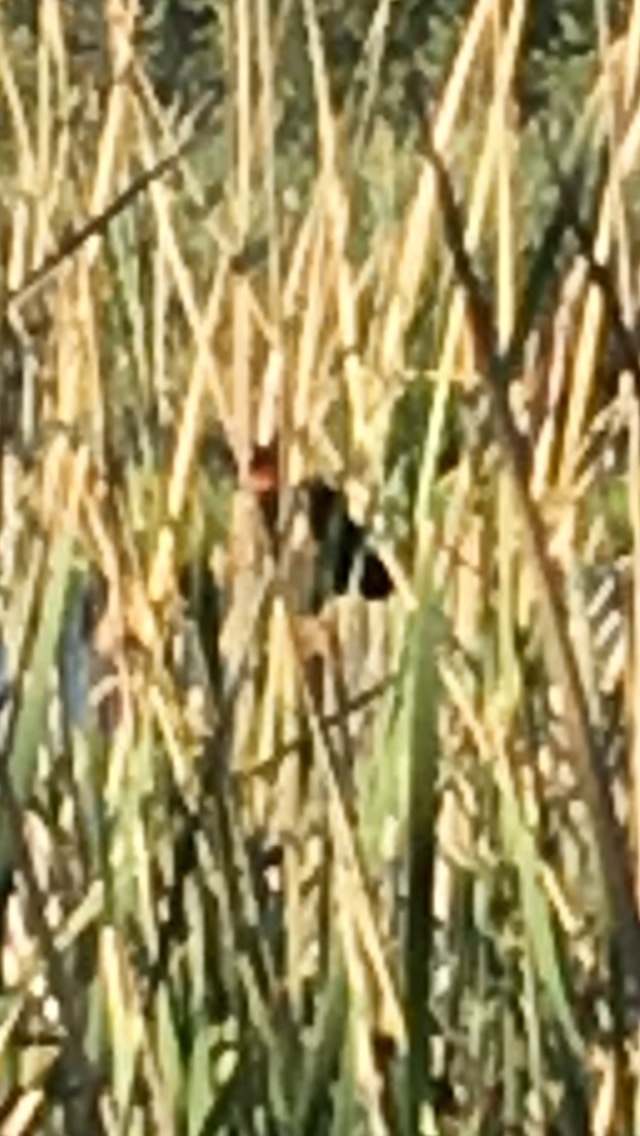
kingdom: Animalia
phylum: Chordata
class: Aves
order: Passeriformes
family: Icteridae
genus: Agelaius
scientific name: Agelaius phoeniceus
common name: Red-winged blackbird
